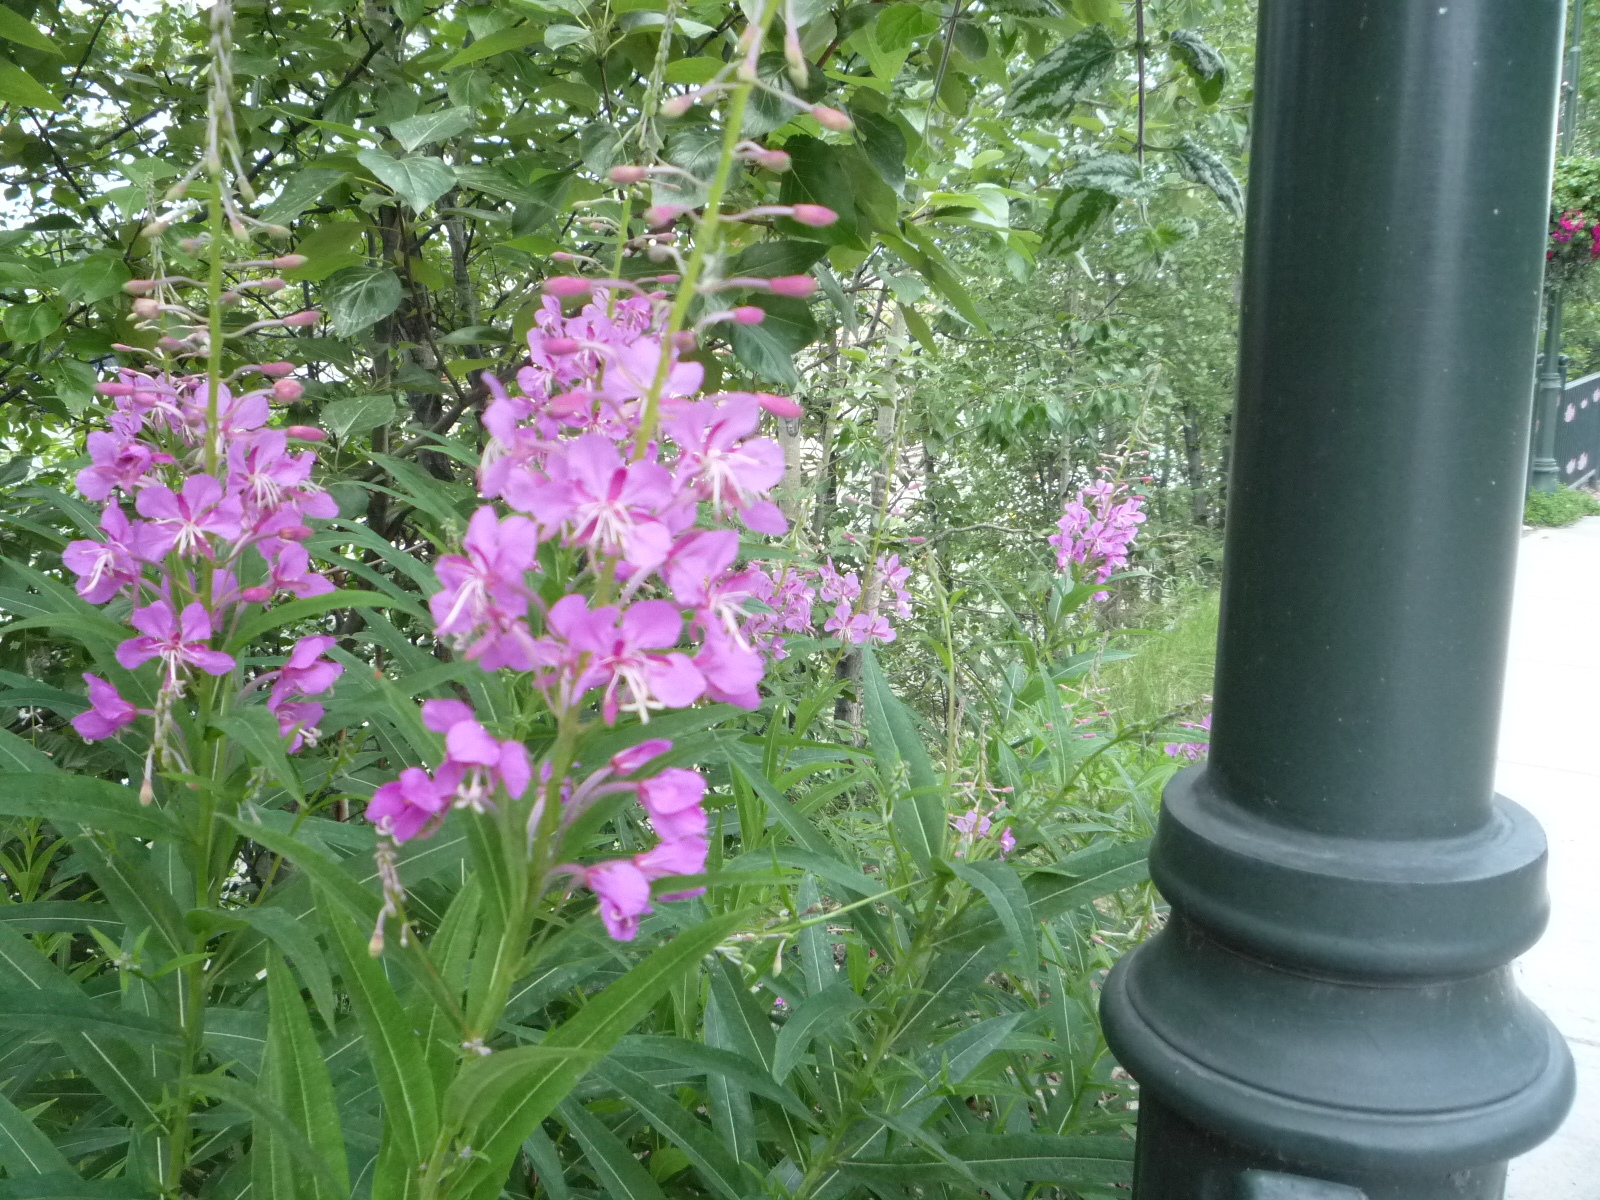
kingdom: Plantae
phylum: Tracheophyta
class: Magnoliopsida
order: Myrtales
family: Onagraceae
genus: Chamaenerion
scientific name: Chamaenerion angustifolium
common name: Fireweed
